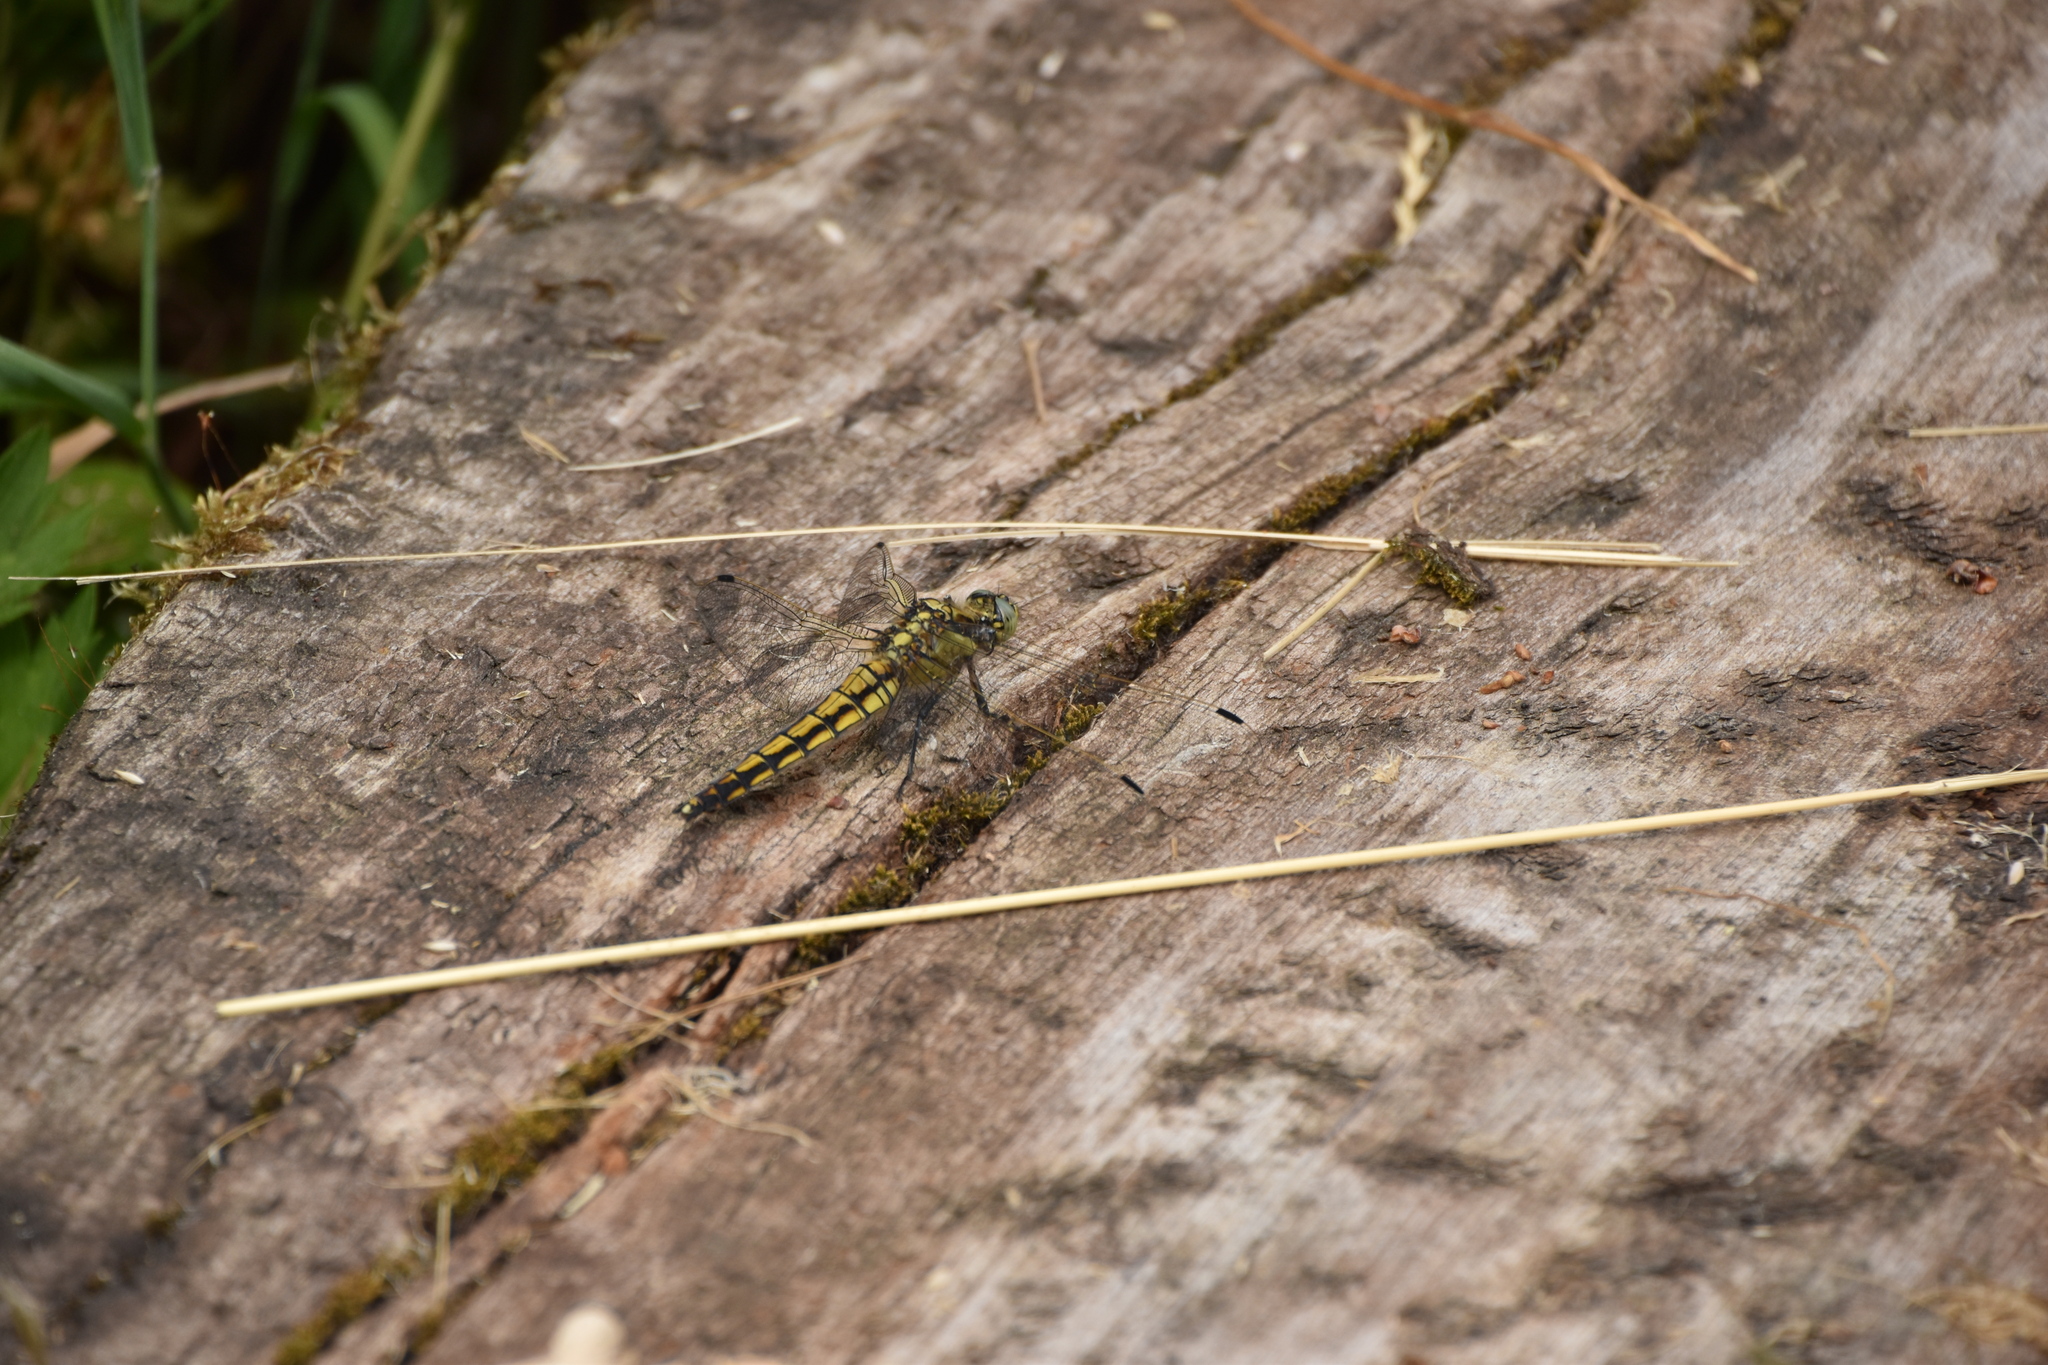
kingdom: Animalia
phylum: Arthropoda
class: Insecta
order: Odonata
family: Libellulidae
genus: Orthetrum
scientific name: Orthetrum cancellatum
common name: Black-tailed skimmer
